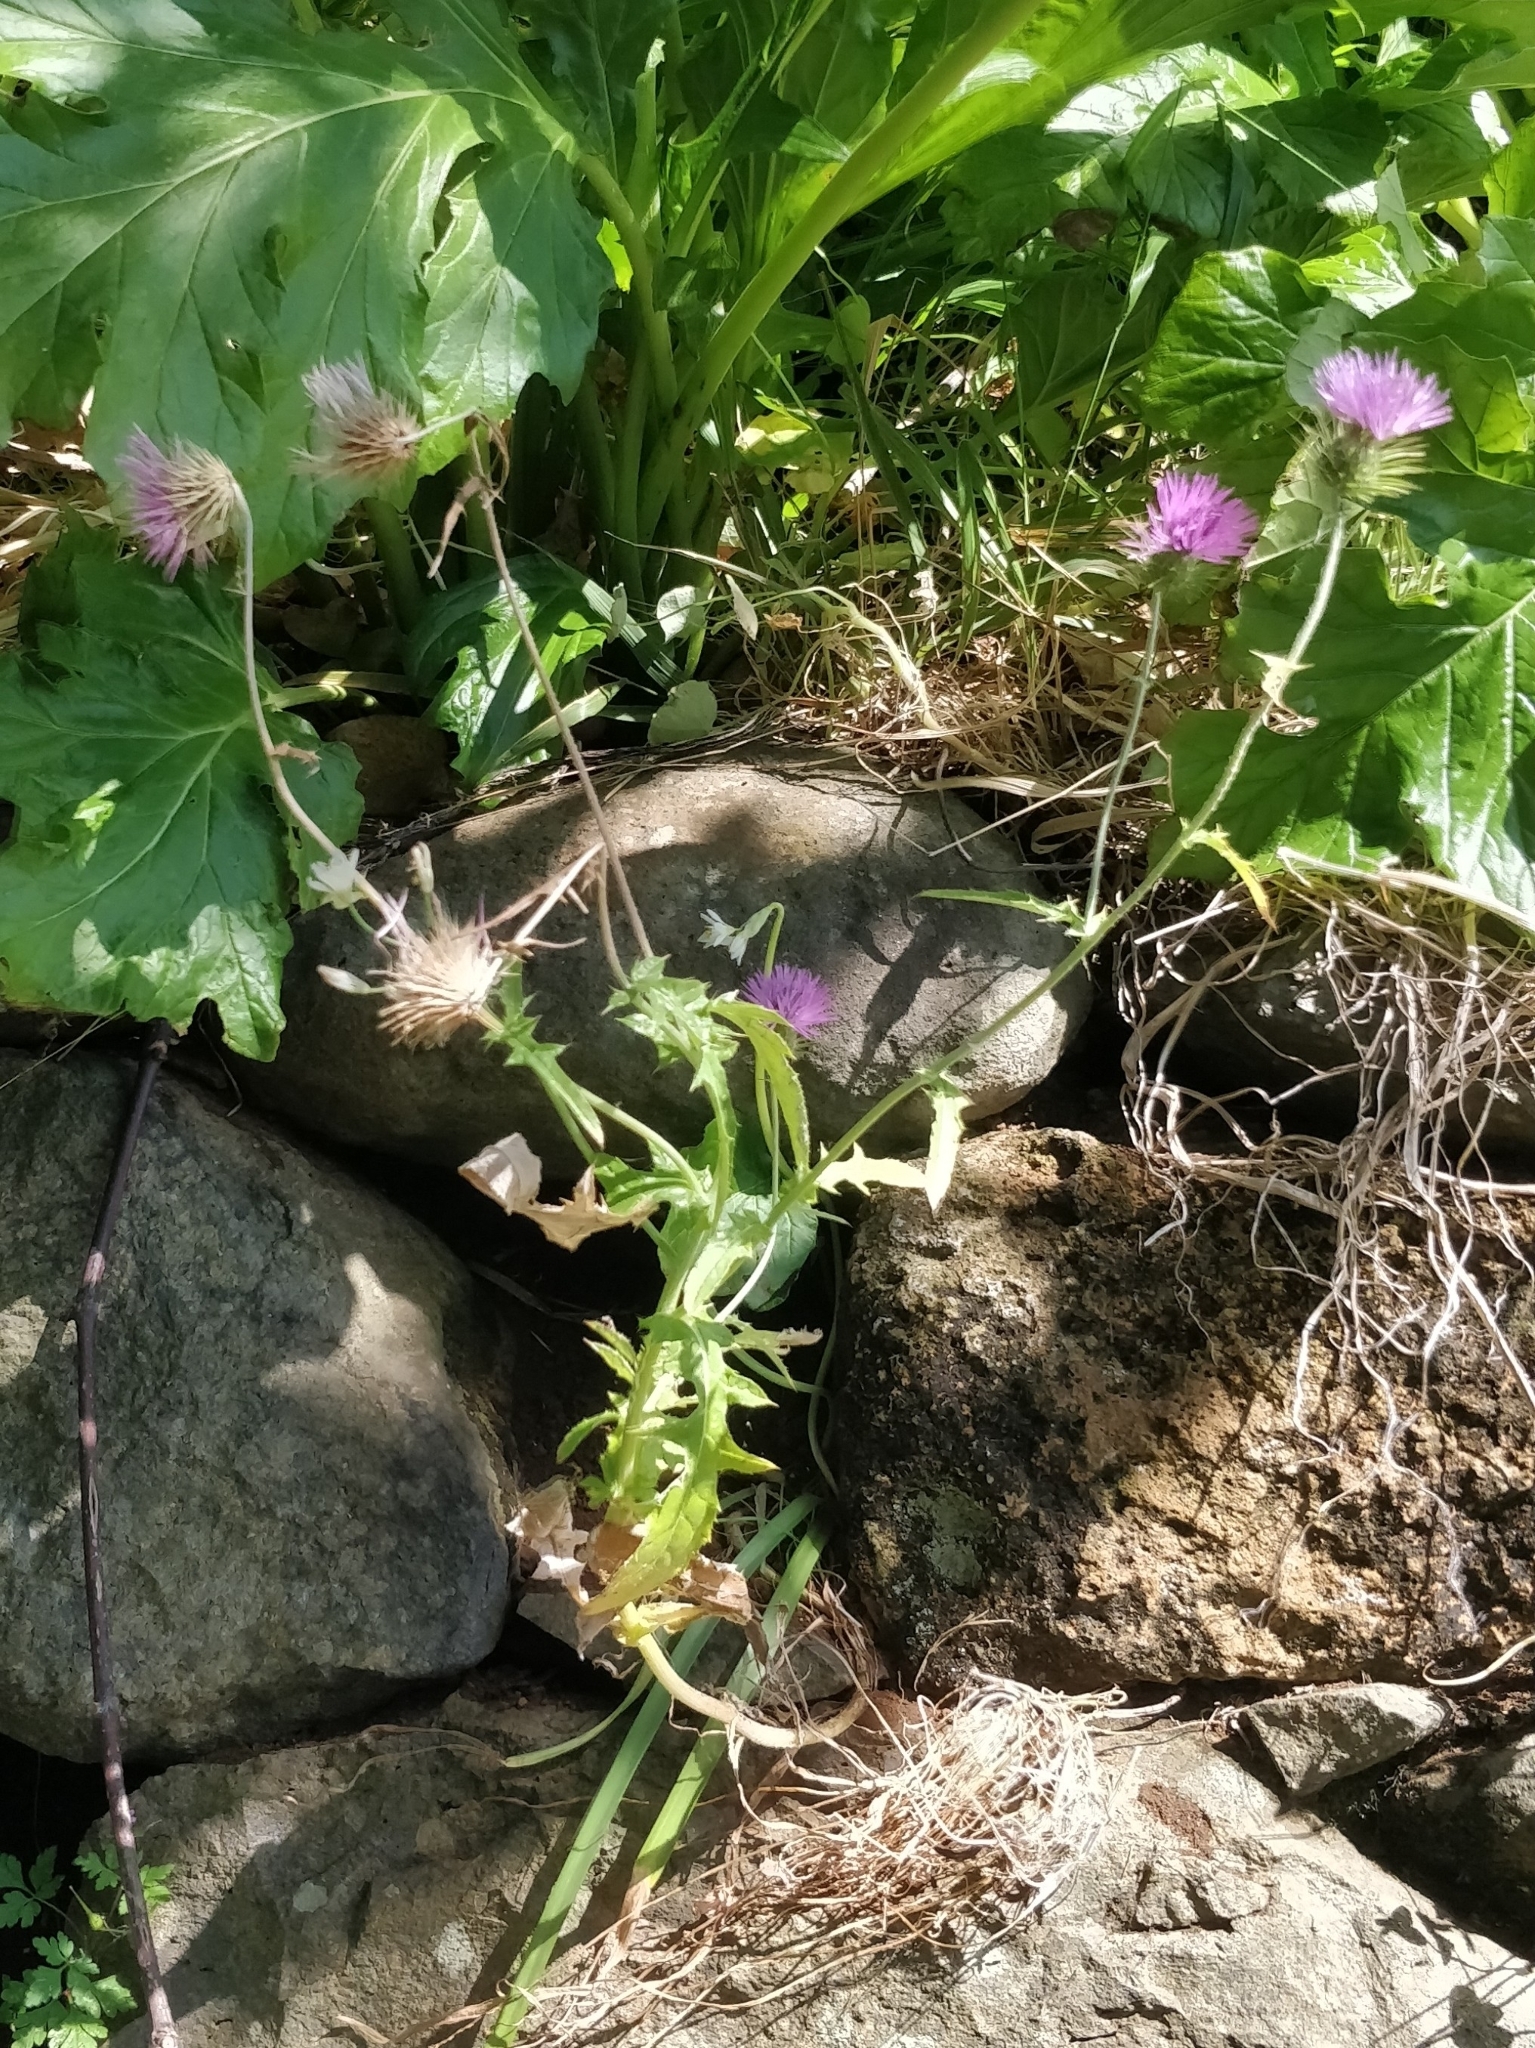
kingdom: Plantae
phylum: Tracheophyta
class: Magnoliopsida
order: Asterales
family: Asteraceae
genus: Galactites
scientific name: Galactites tomentosa
